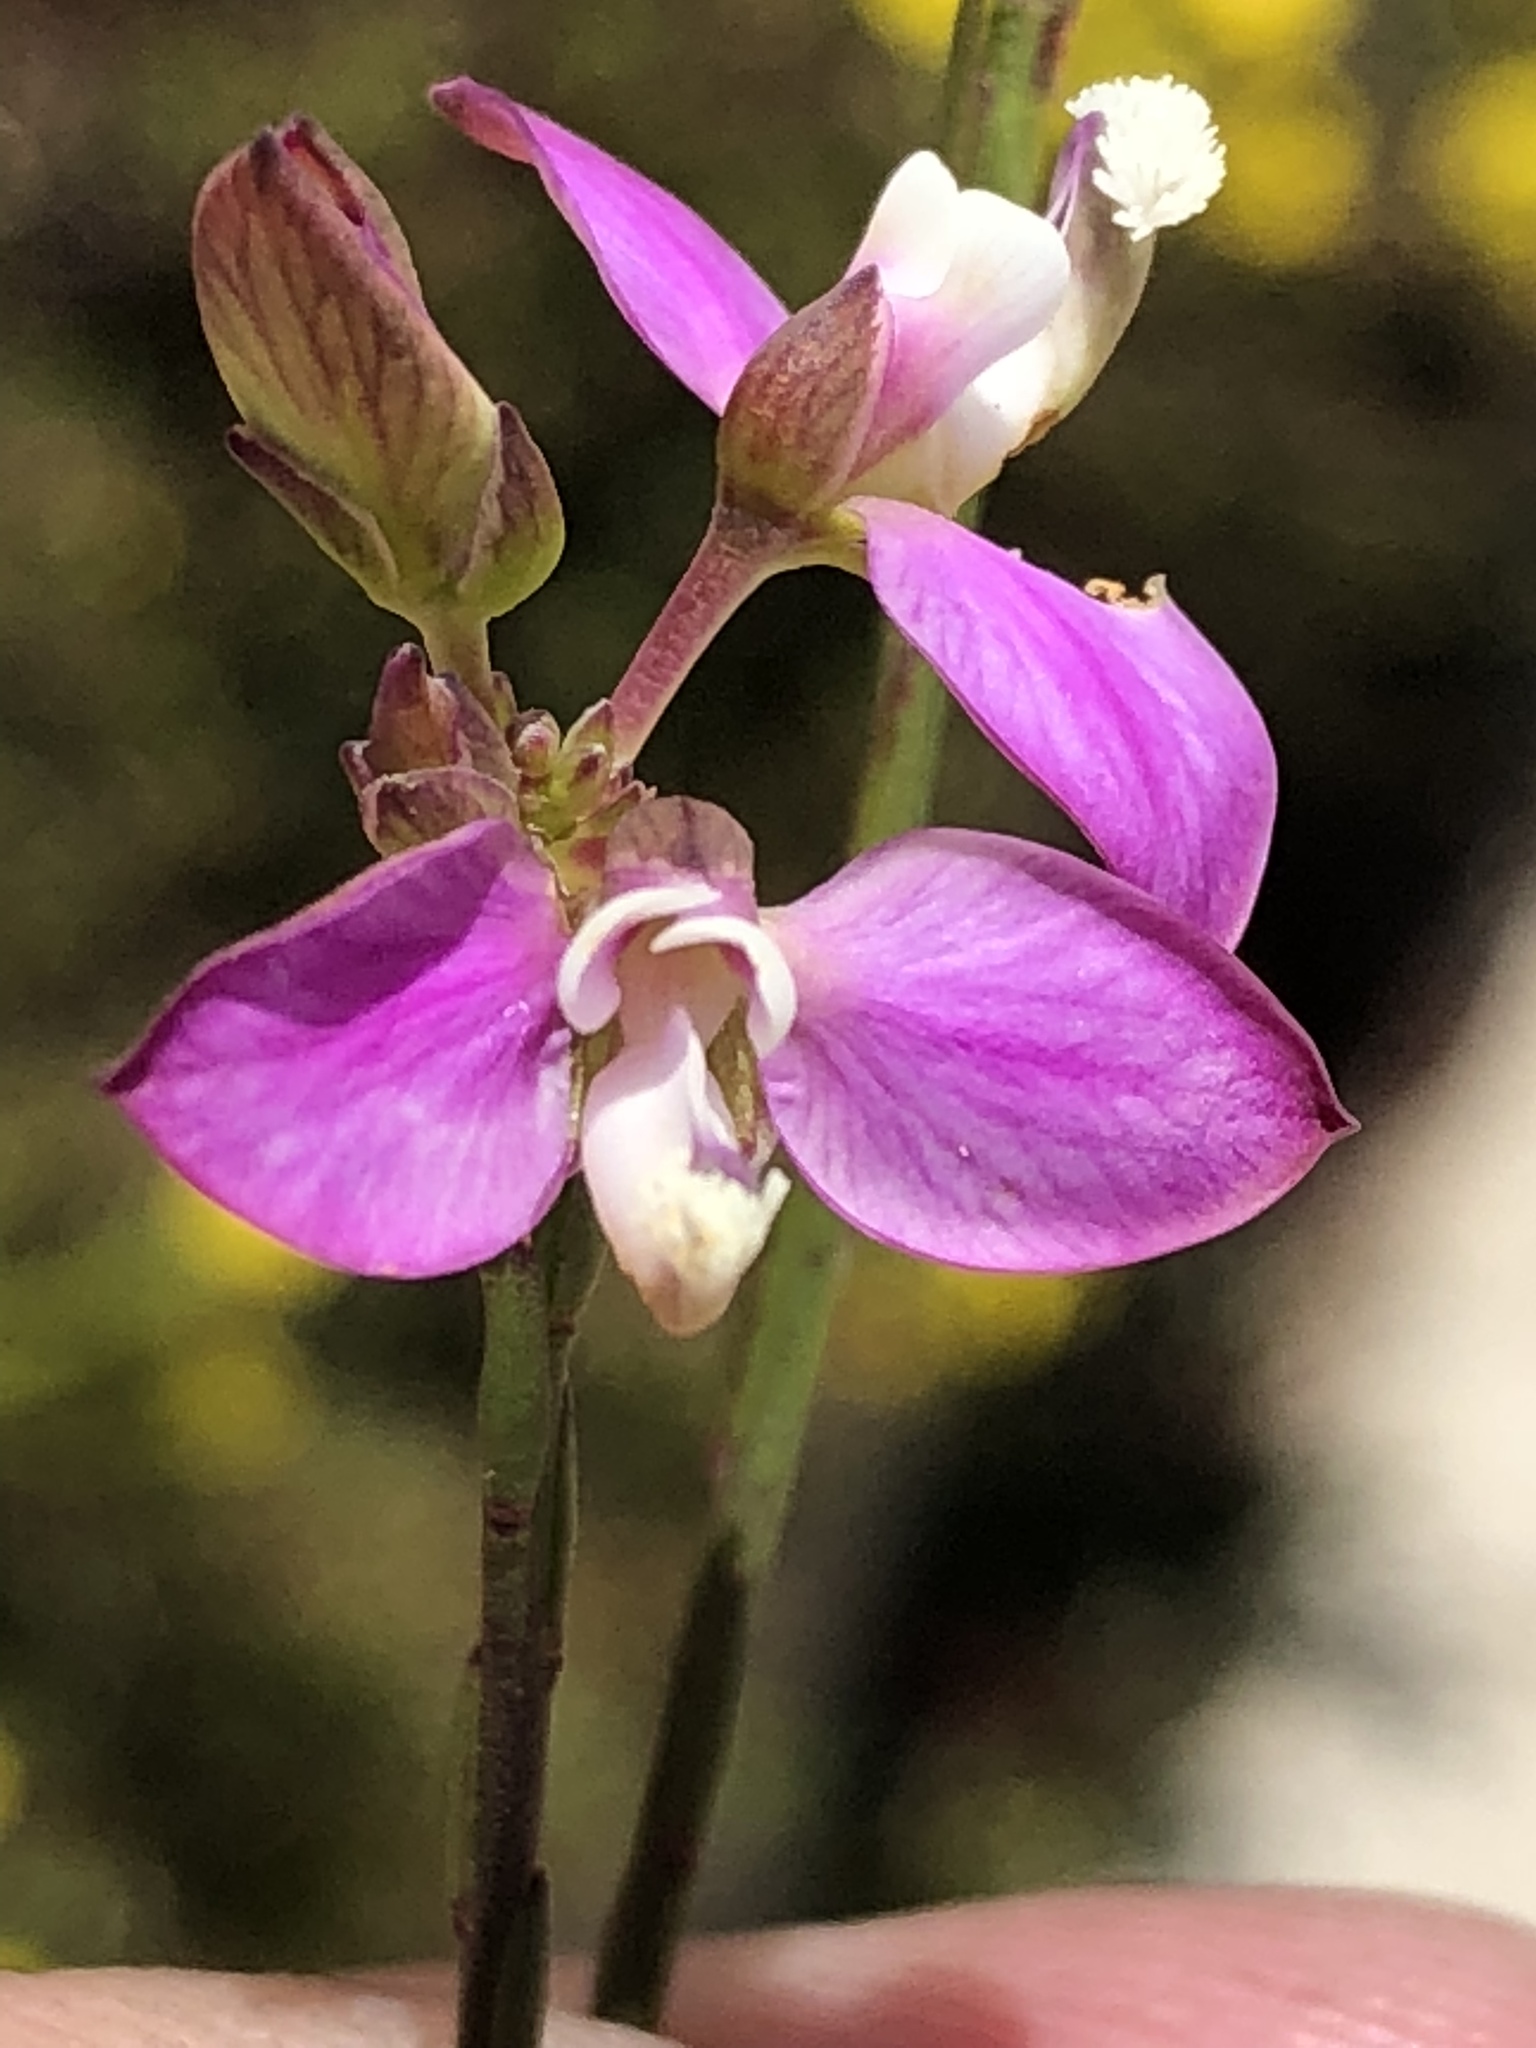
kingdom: Plantae
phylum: Tracheophyta
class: Magnoliopsida
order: Fabales
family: Polygalaceae
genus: Polygala
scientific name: Polygala wittebergensis
